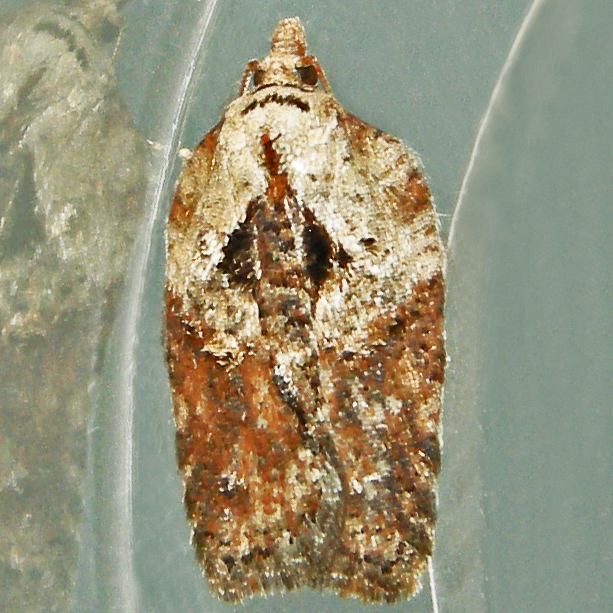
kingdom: Animalia
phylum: Arthropoda
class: Insecta
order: Lepidoptera
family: Tortricidae
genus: Acleris
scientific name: Acleris robinsoniana
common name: Robinson's acleris moth
